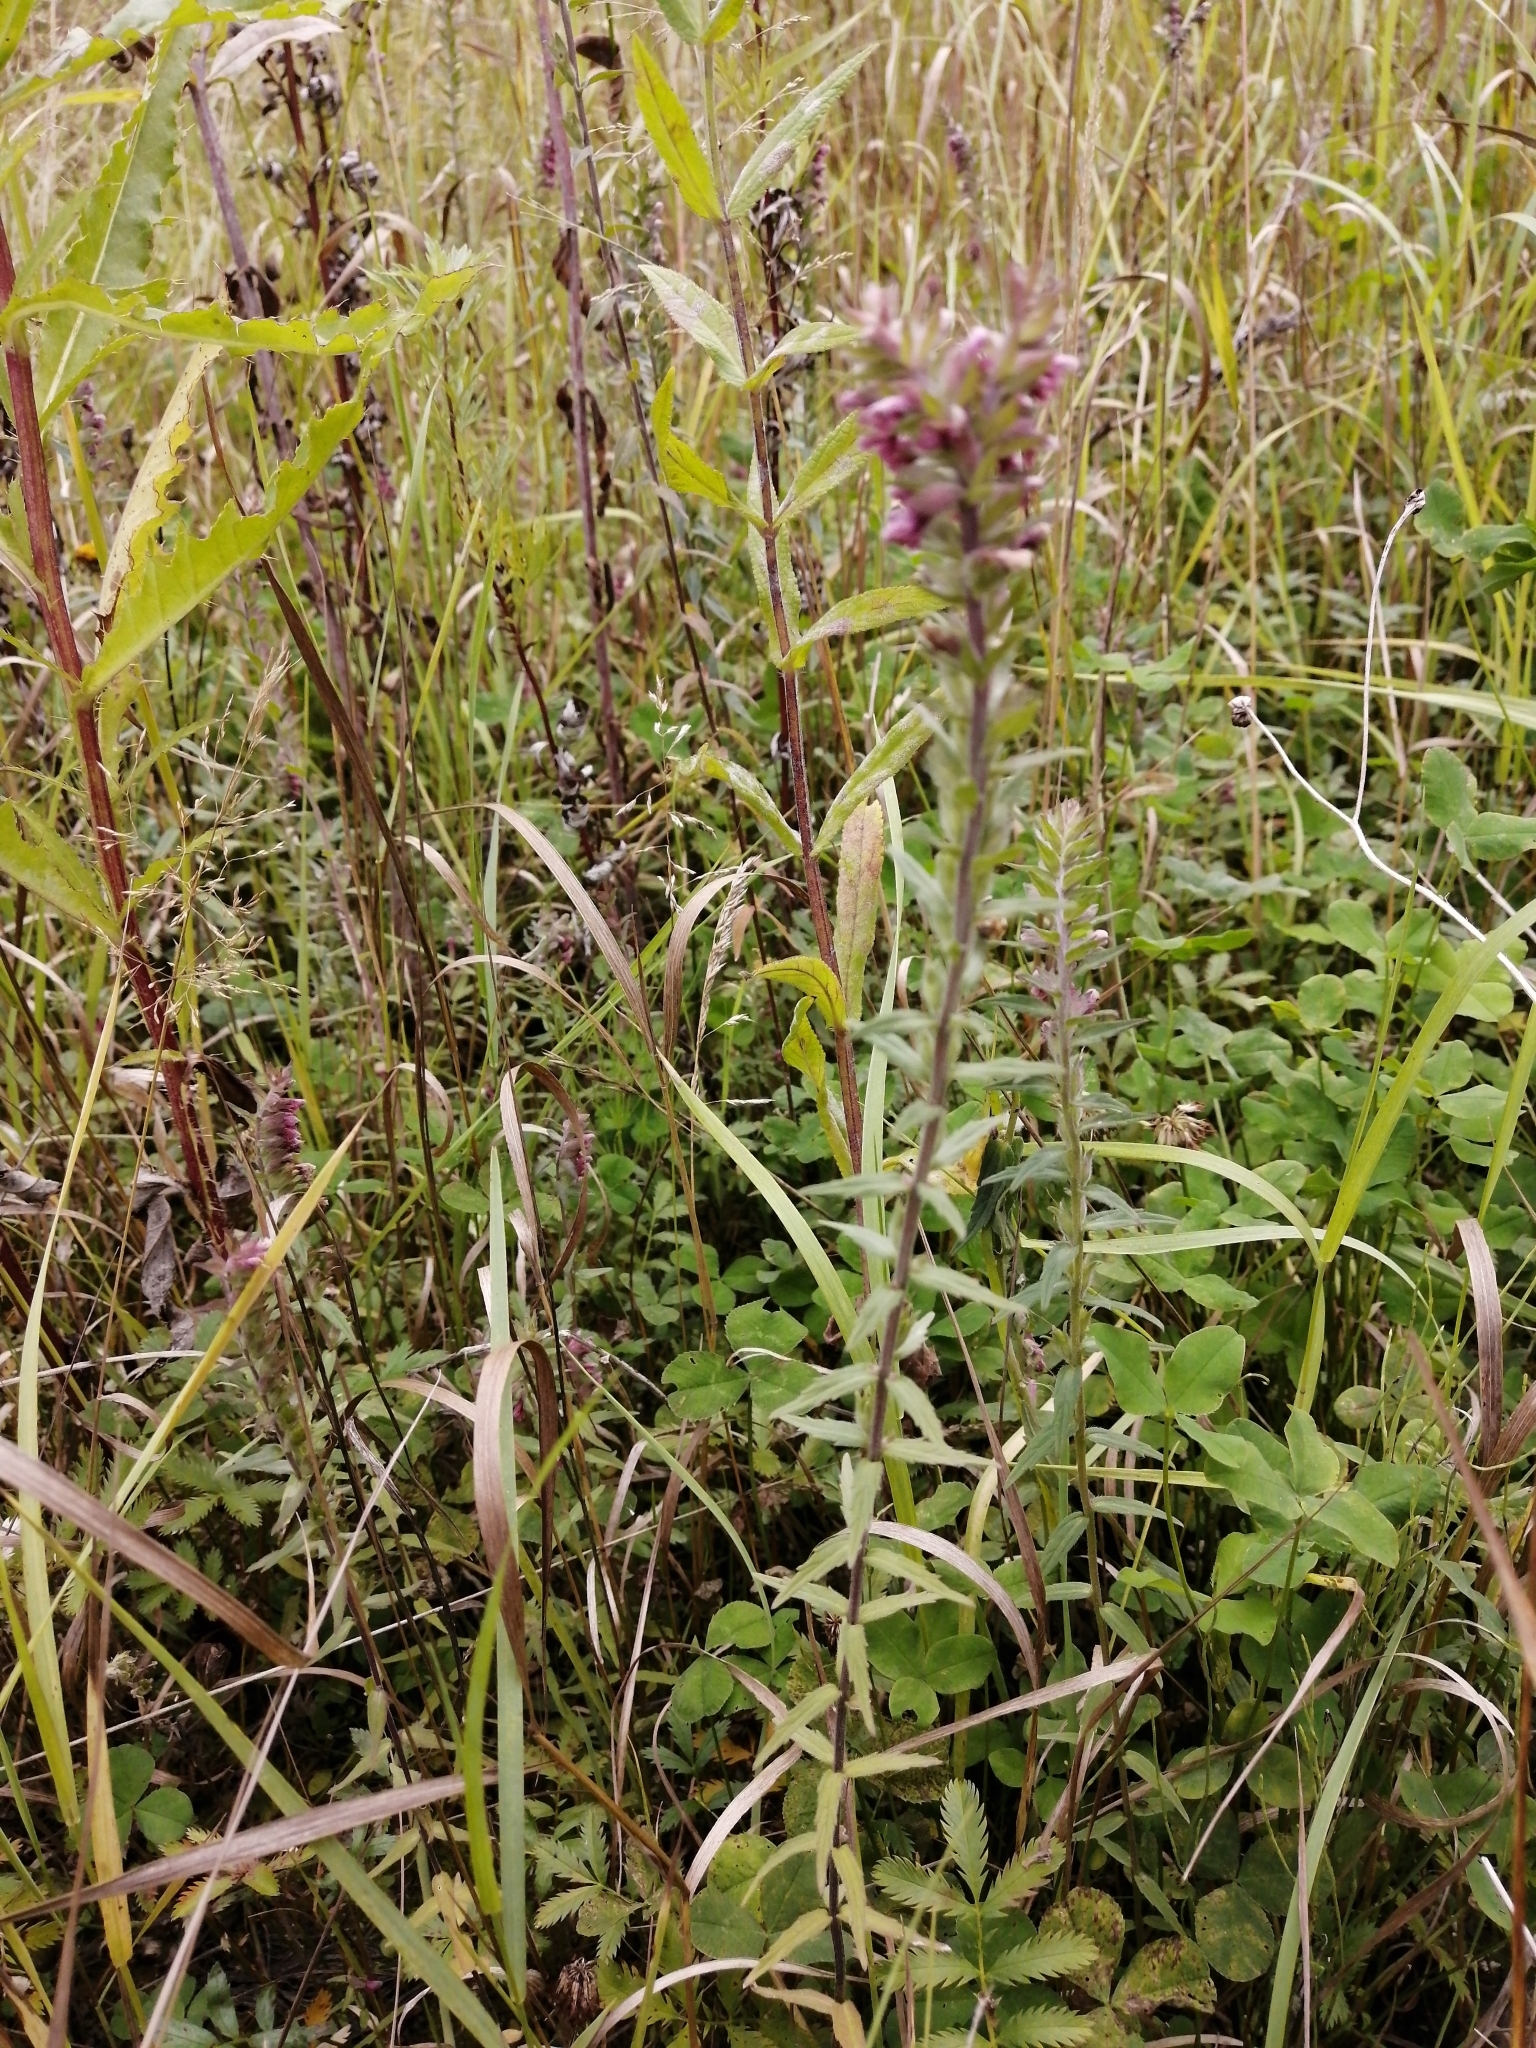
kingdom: Plantae
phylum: Tracheophyta
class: Magnoliopsida
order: Lamiales
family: Orobanchaceae
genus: Odontites
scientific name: Odontites vulgaris
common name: Broomrape
